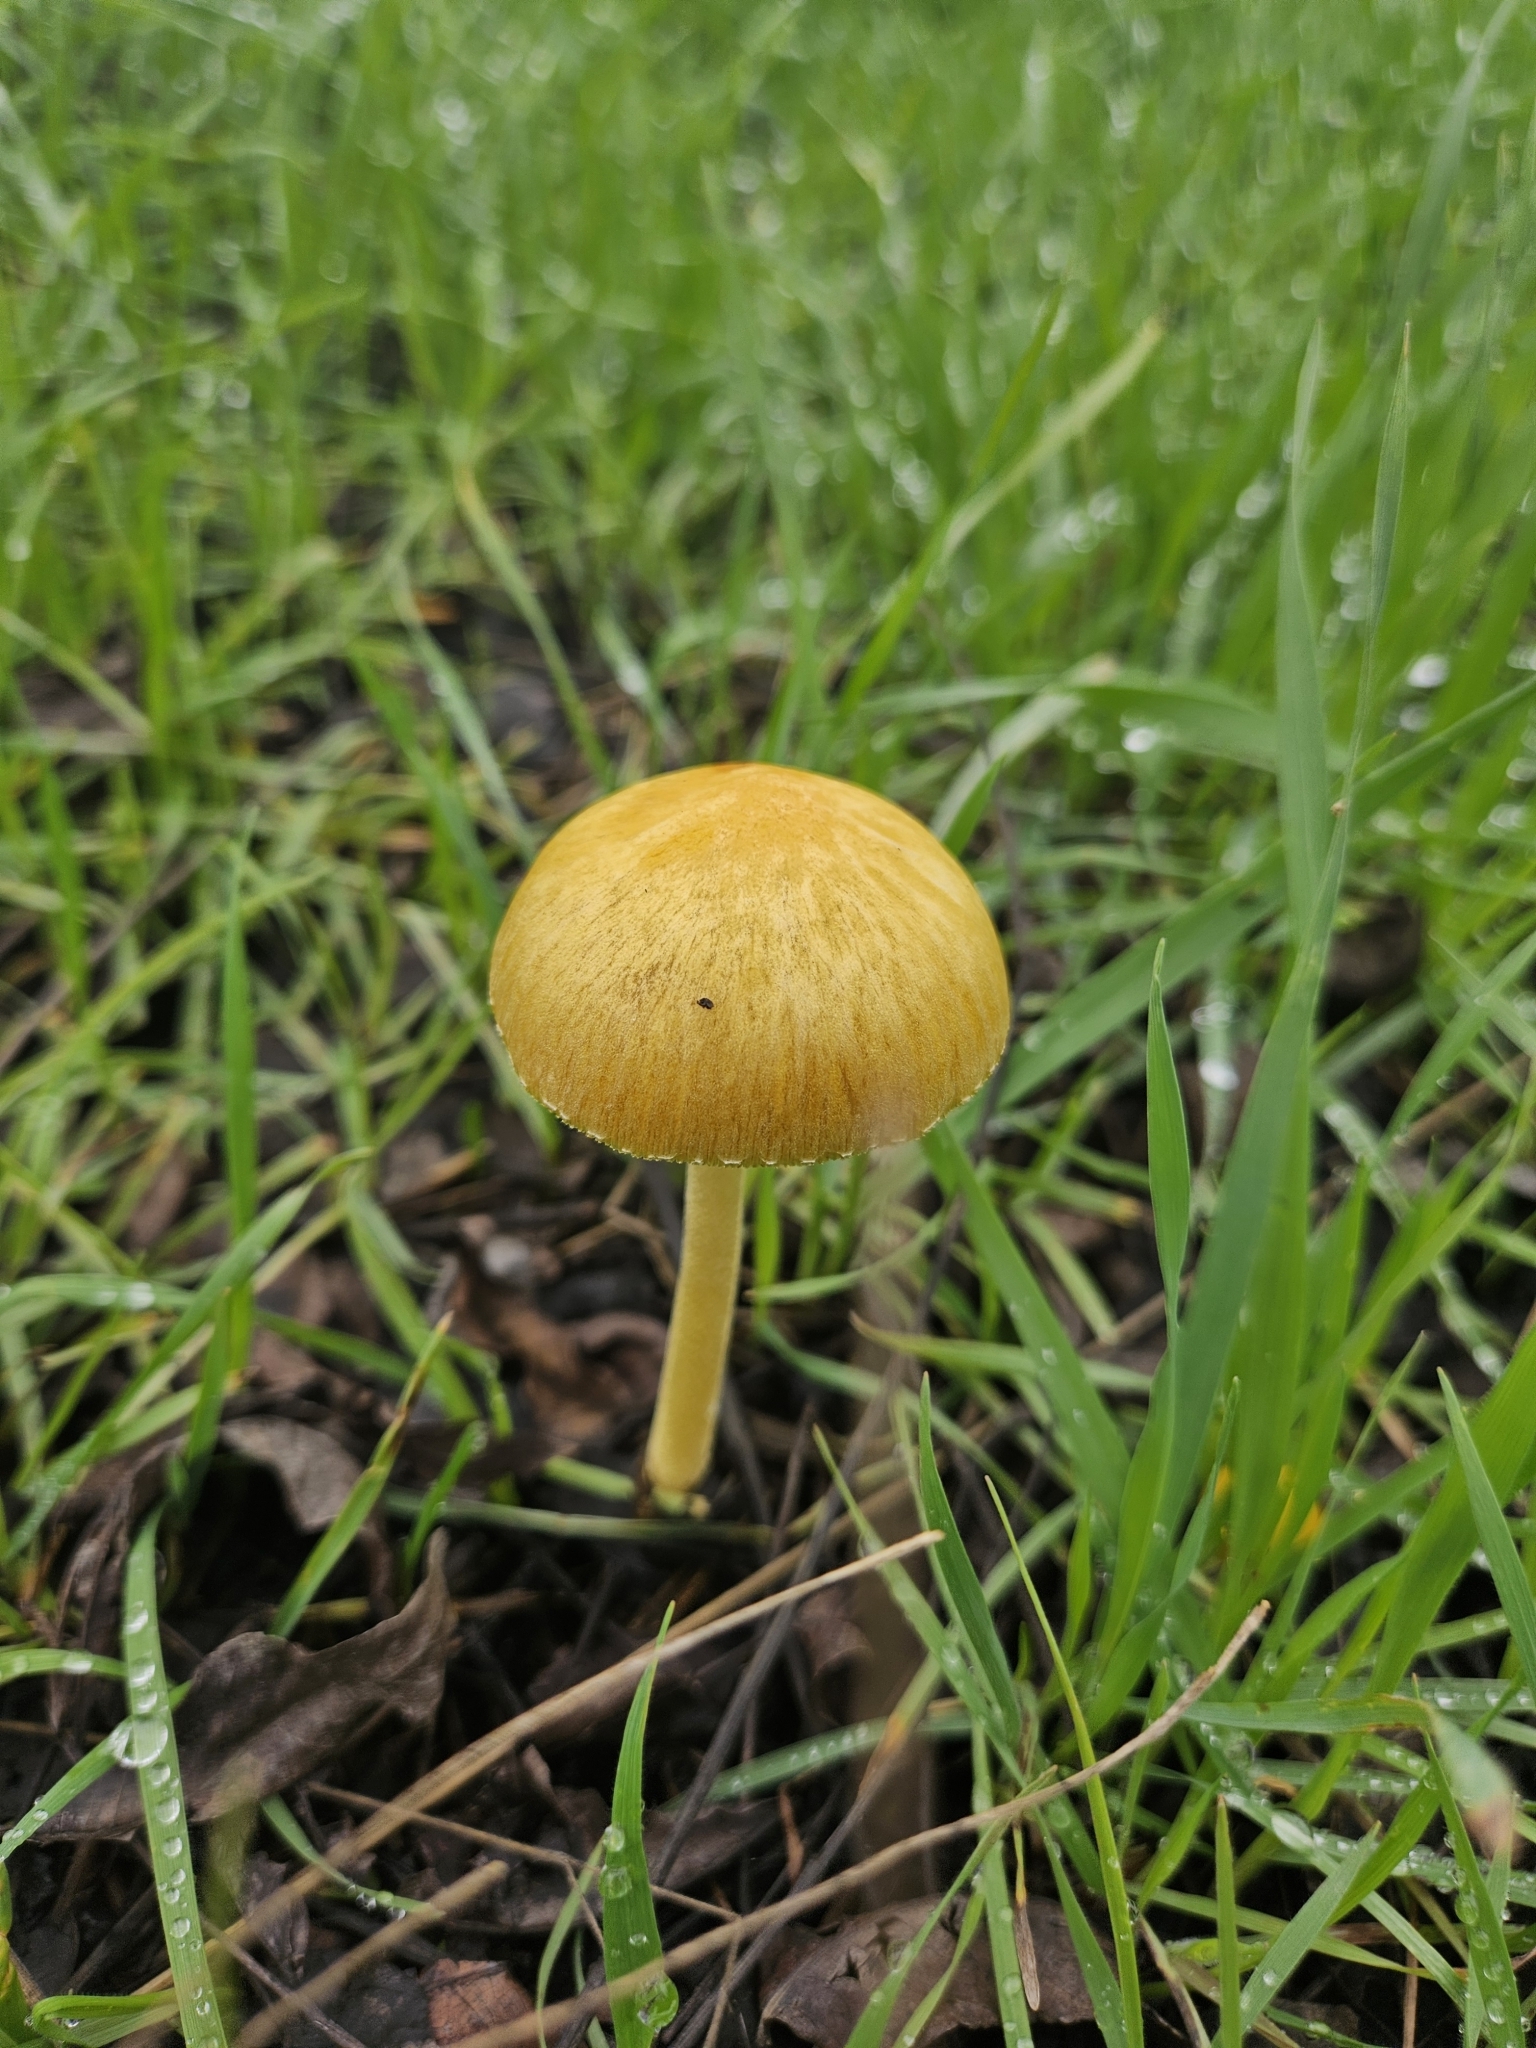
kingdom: Fungi
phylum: Basidiomycota
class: Agaricomycetes
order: Agaricales
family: Bolbitiaceae
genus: Bolbitius
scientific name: Bolbitius titubans
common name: Yellow fieldcap
